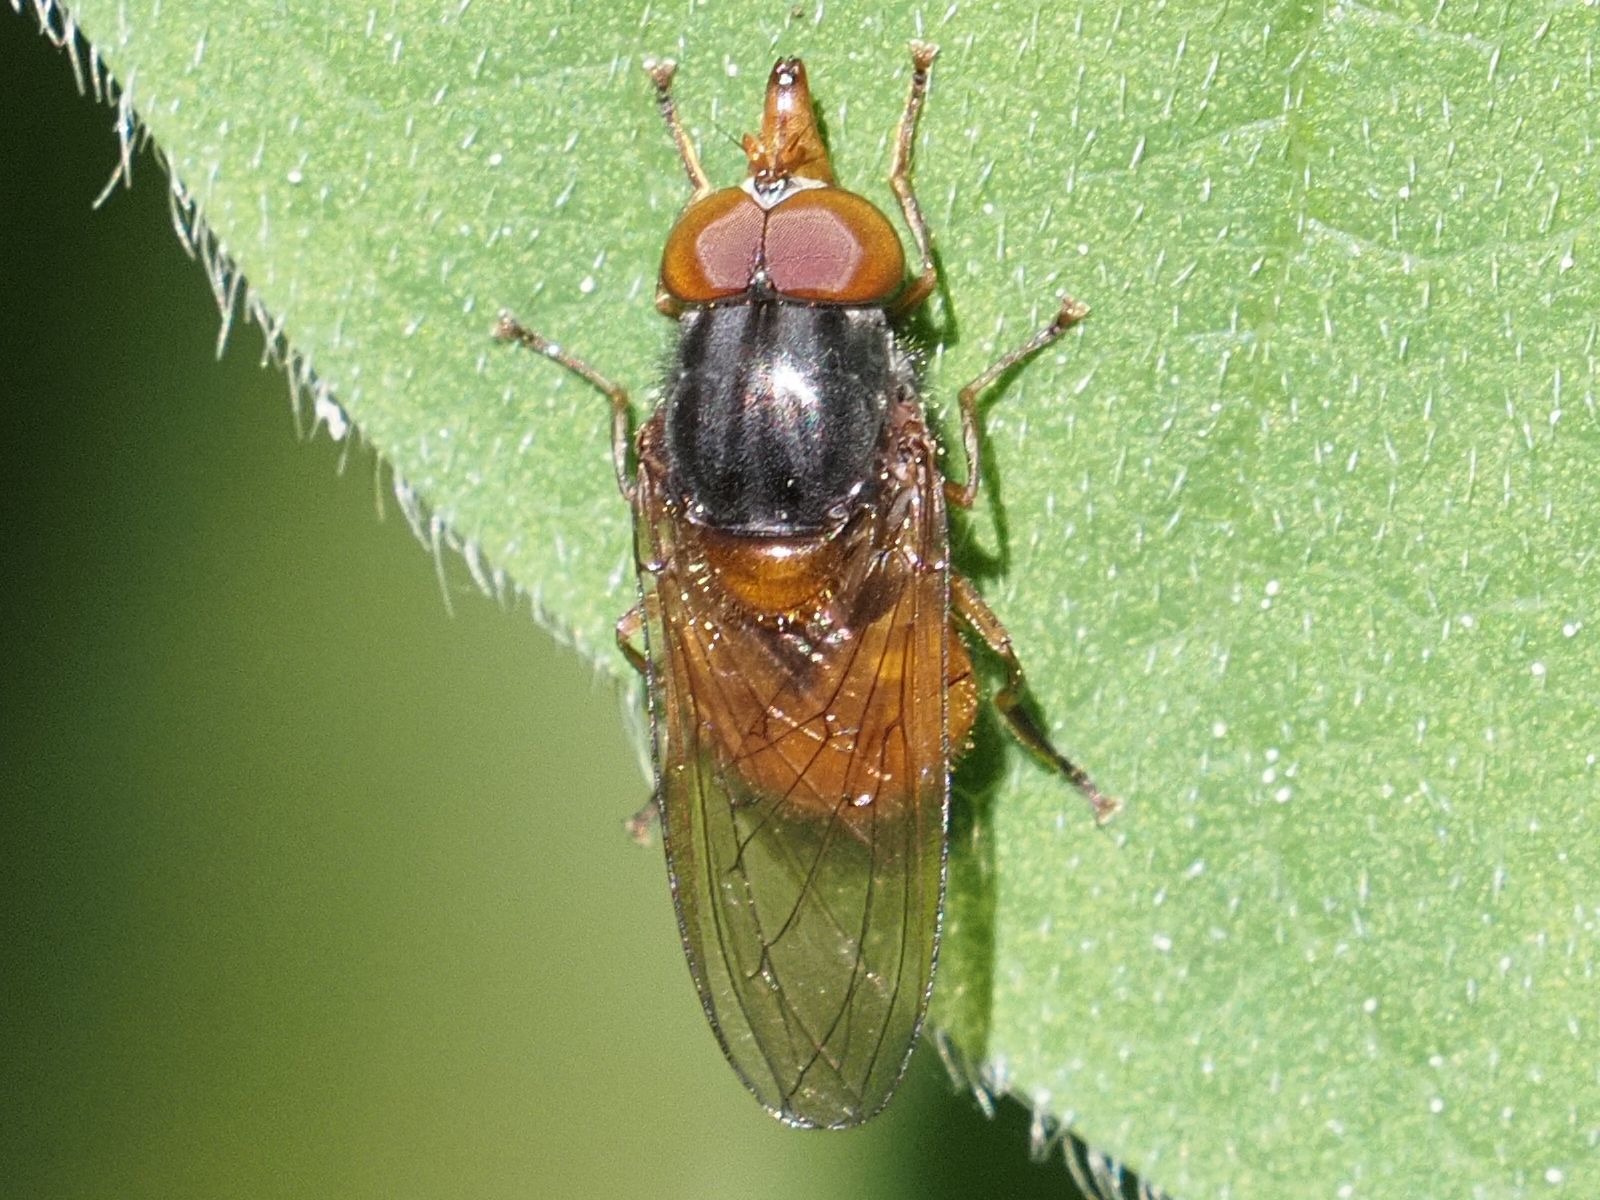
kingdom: Animalia
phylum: Arthropoda
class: Insecta
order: Diptera
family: Syrphidae
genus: Rhingia
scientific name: Rhingia rostrata
